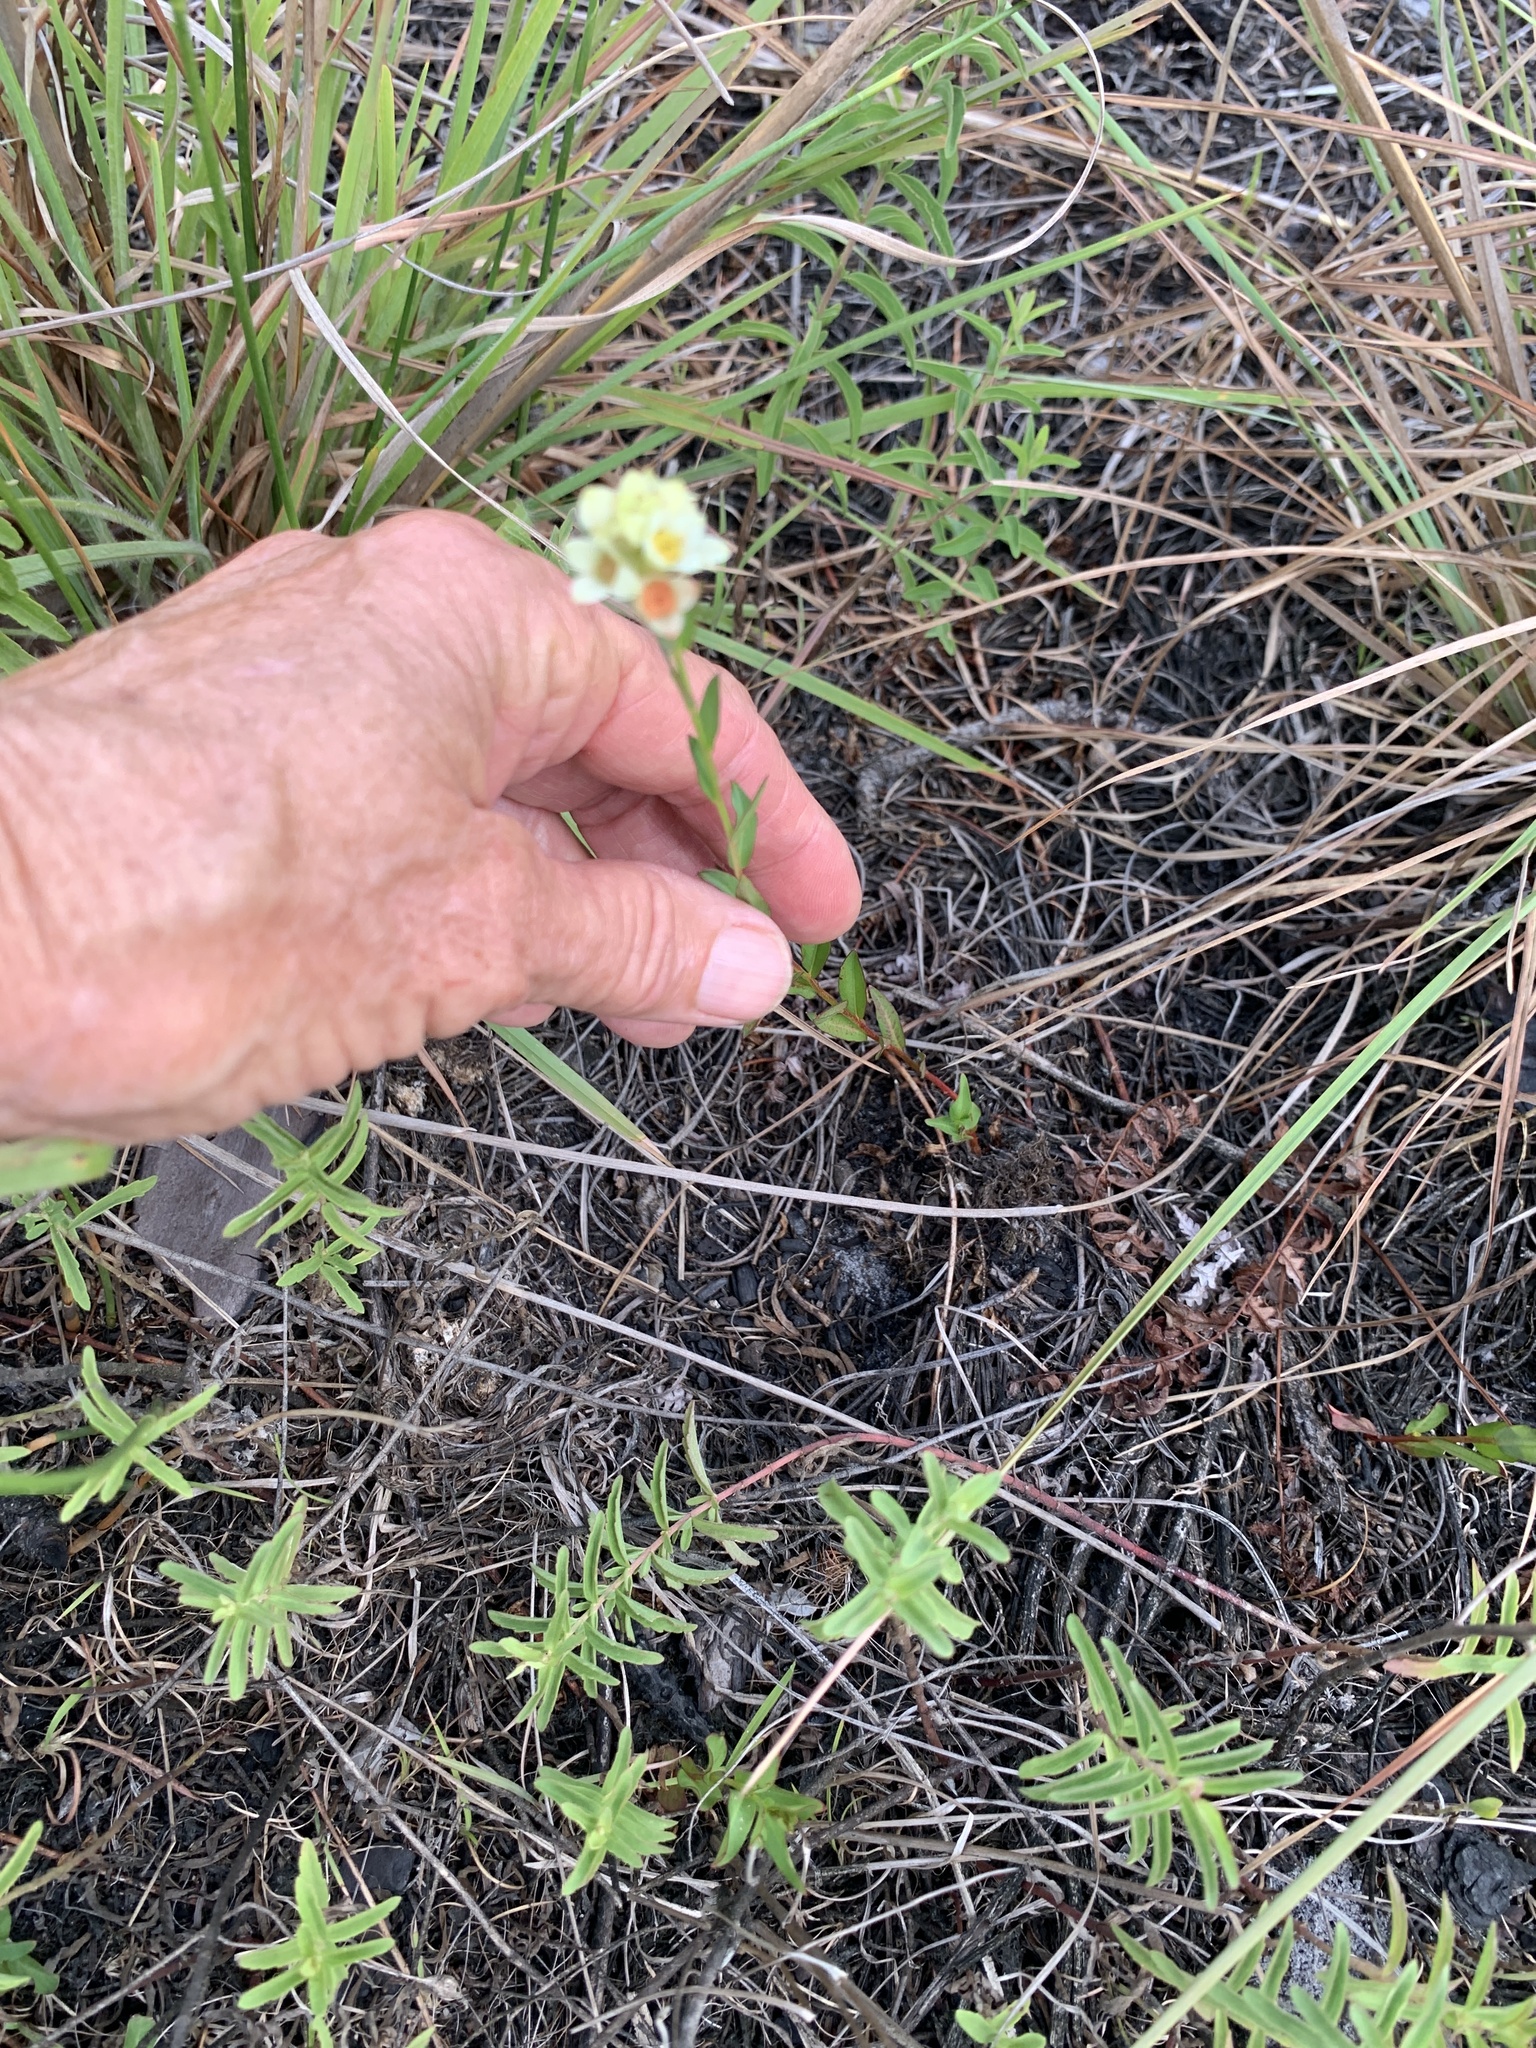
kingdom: Plantae
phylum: Tracheophyta
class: Magnoliopsida
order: Myrtales
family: Onagraceae
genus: Ludwigia
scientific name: Ludwigia suffruticosa
